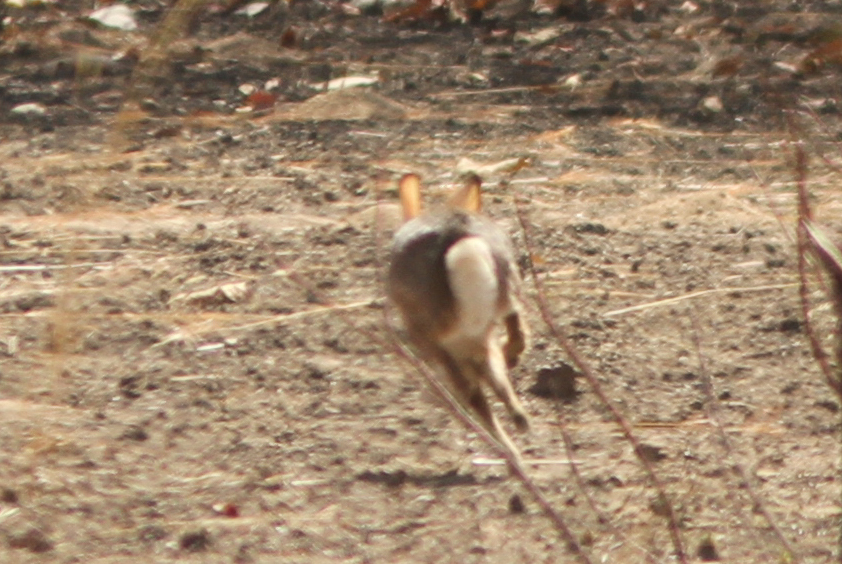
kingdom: Animalia
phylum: Chordata
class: Mammalia
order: Lagomorpha
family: Leporidae
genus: Lepus
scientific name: Lepus victoriae
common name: African savanna hare
